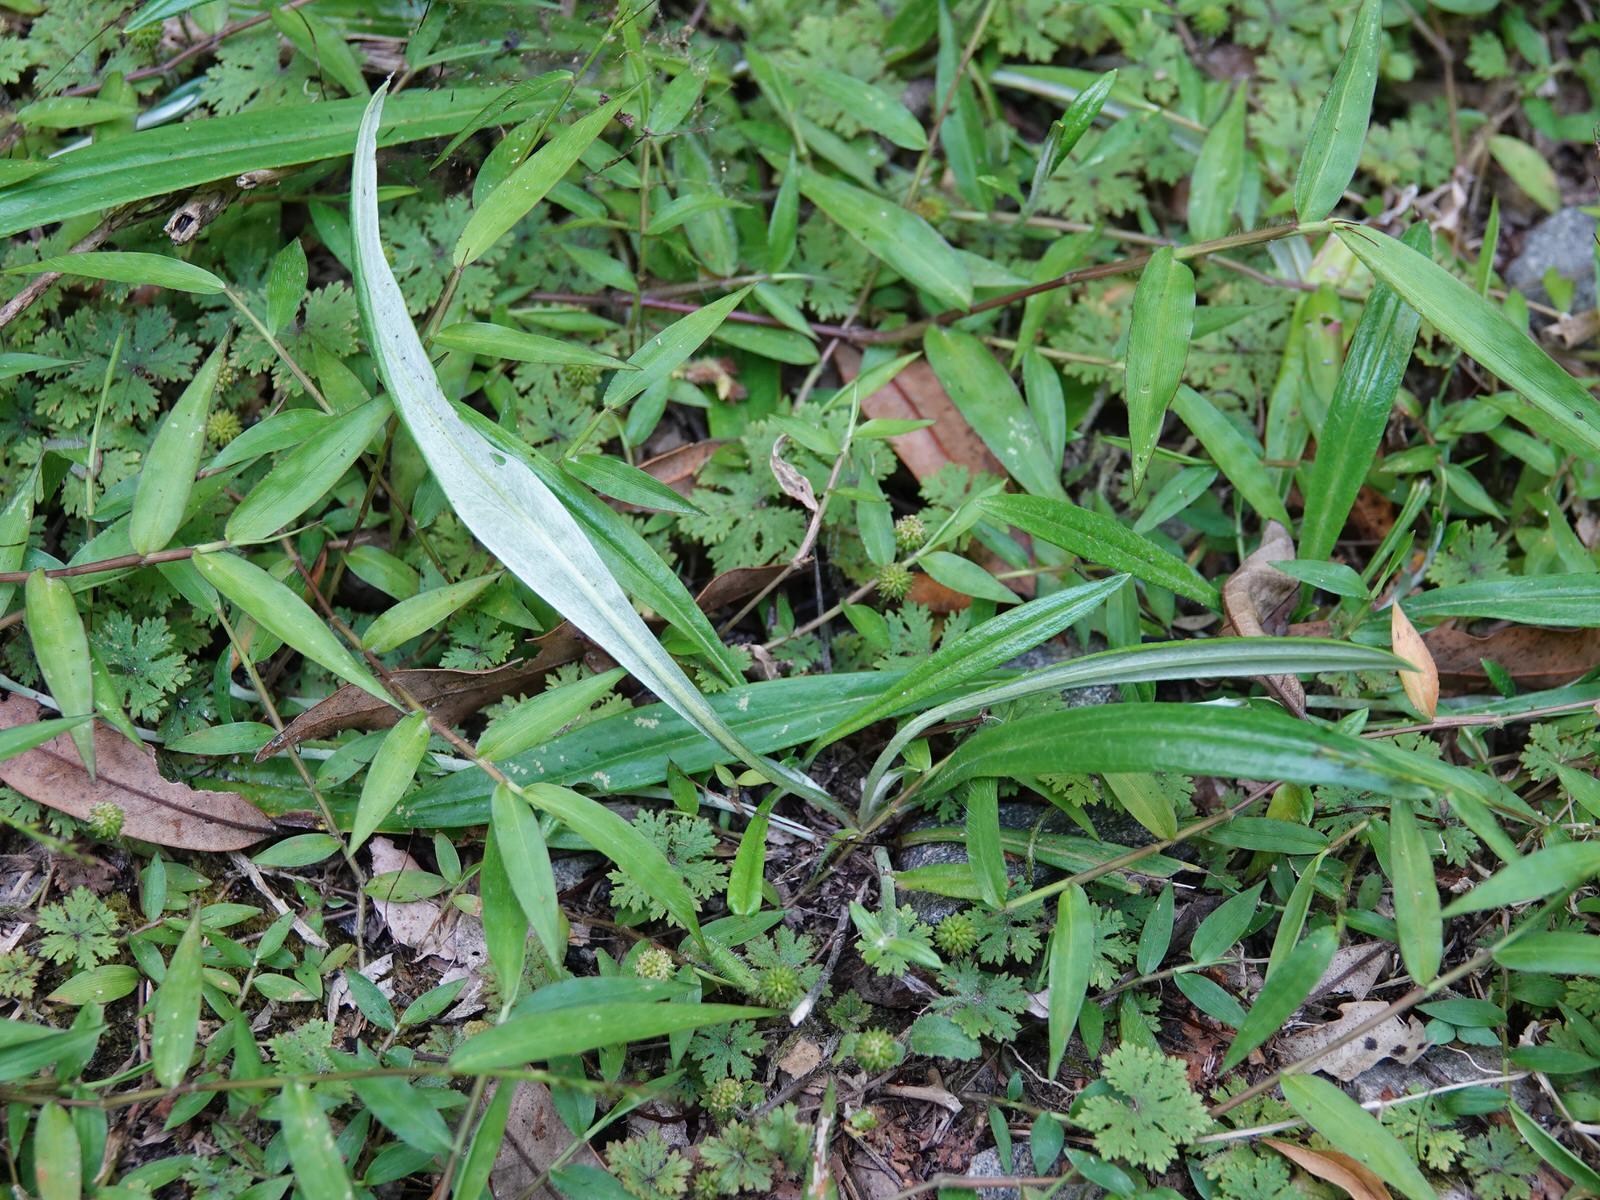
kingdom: Plantae
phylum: Tracheophyta
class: Magnoliopsida
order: Asterales
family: Asteraceae
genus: Euchiton
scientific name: Euchiton japonicus
